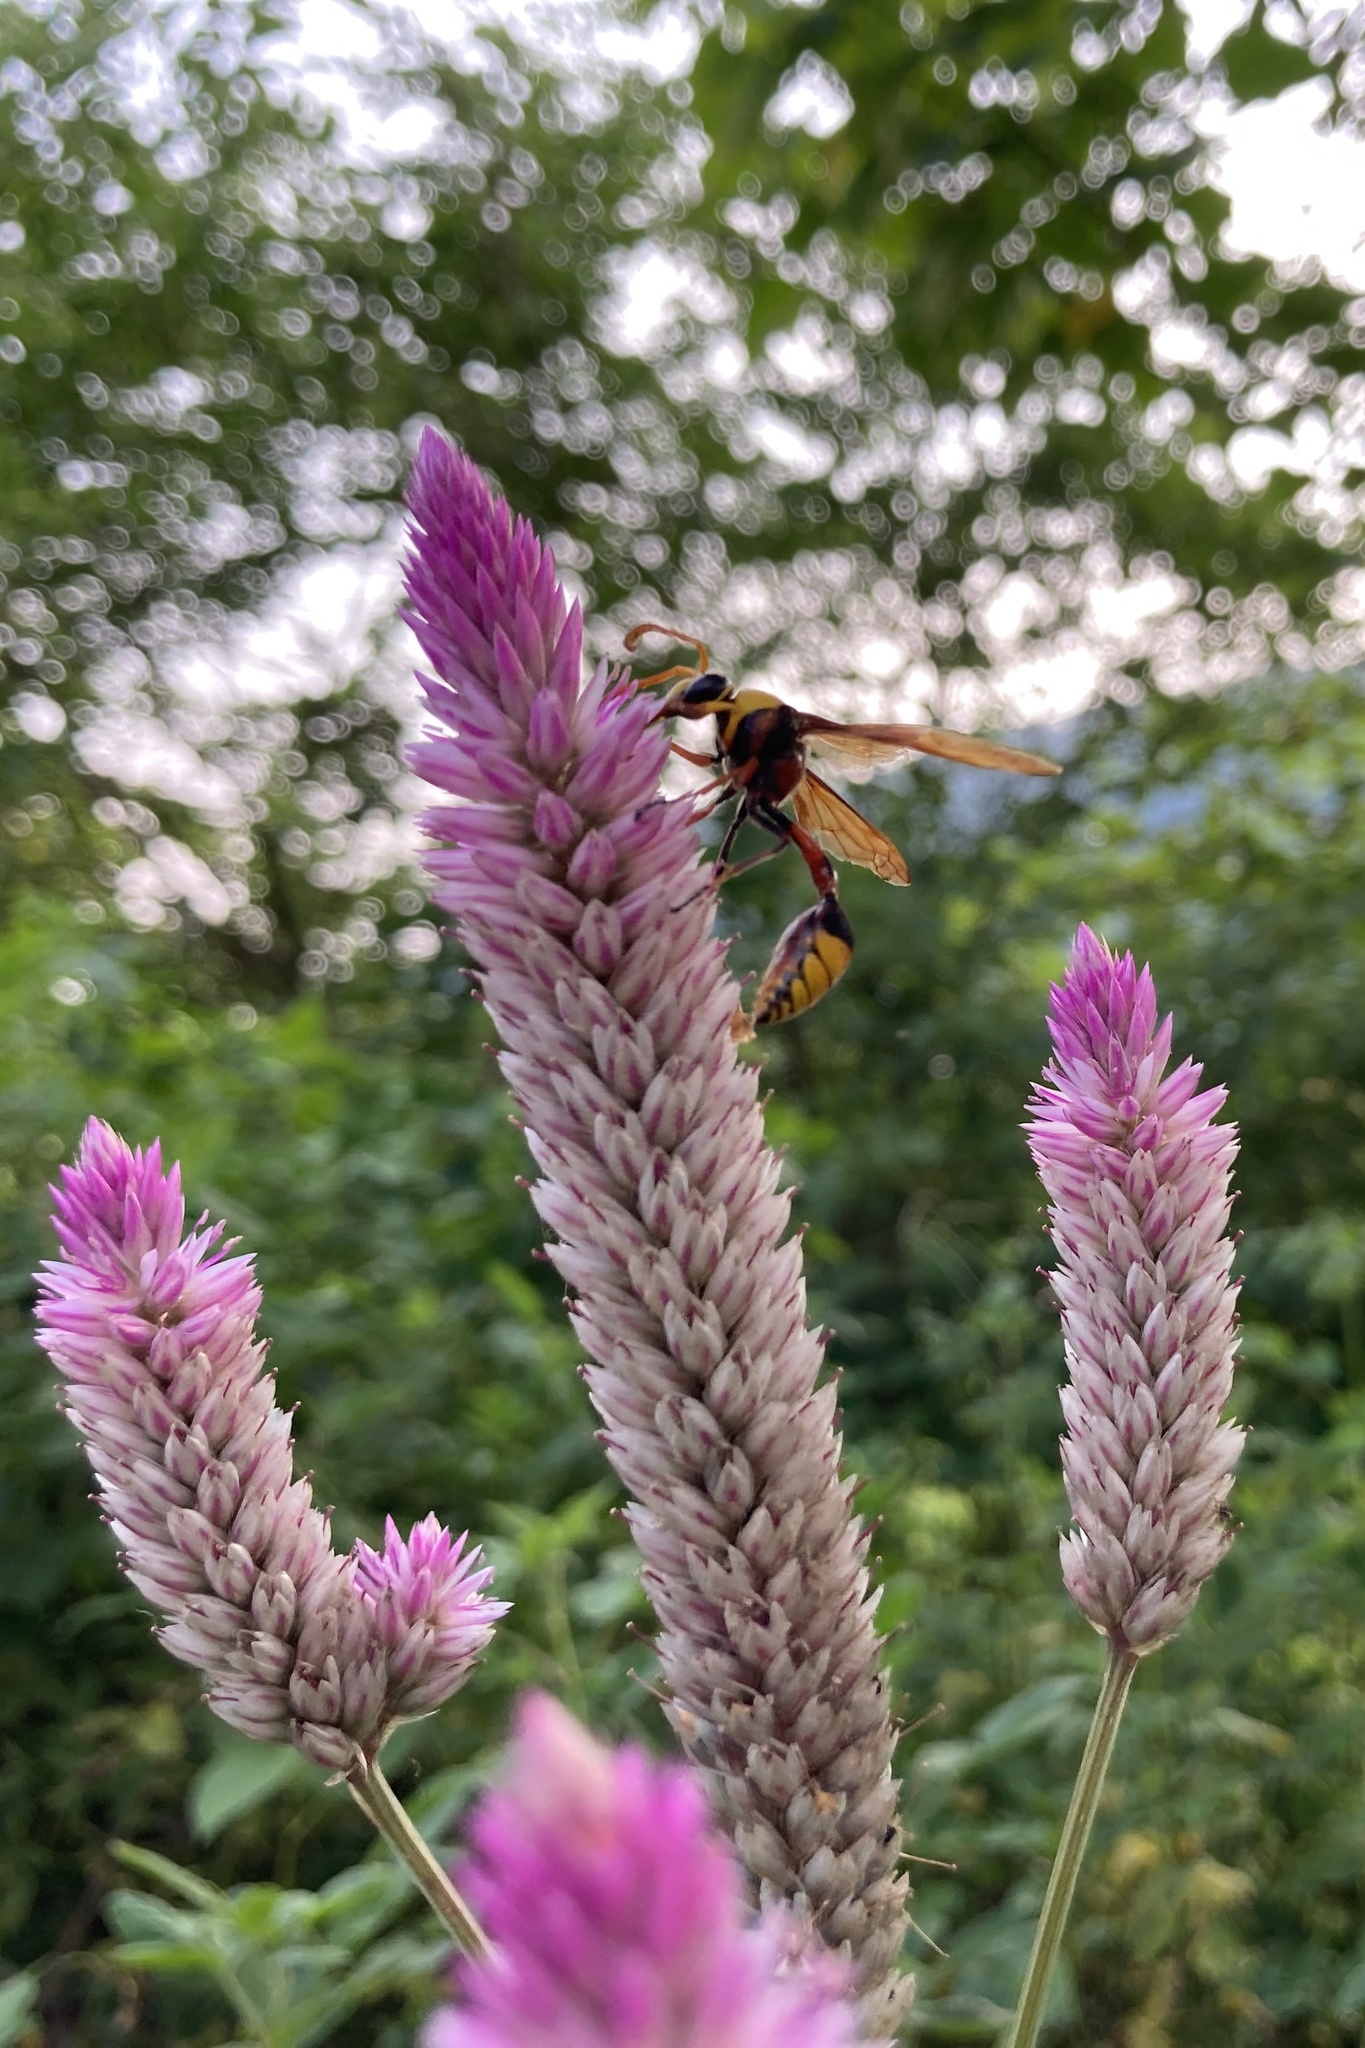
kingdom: Animalia
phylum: Arthropoda
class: Insecta
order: Hymenoptera
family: Eumenidae
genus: Delta
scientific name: Delta pyriforme
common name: Wasp
